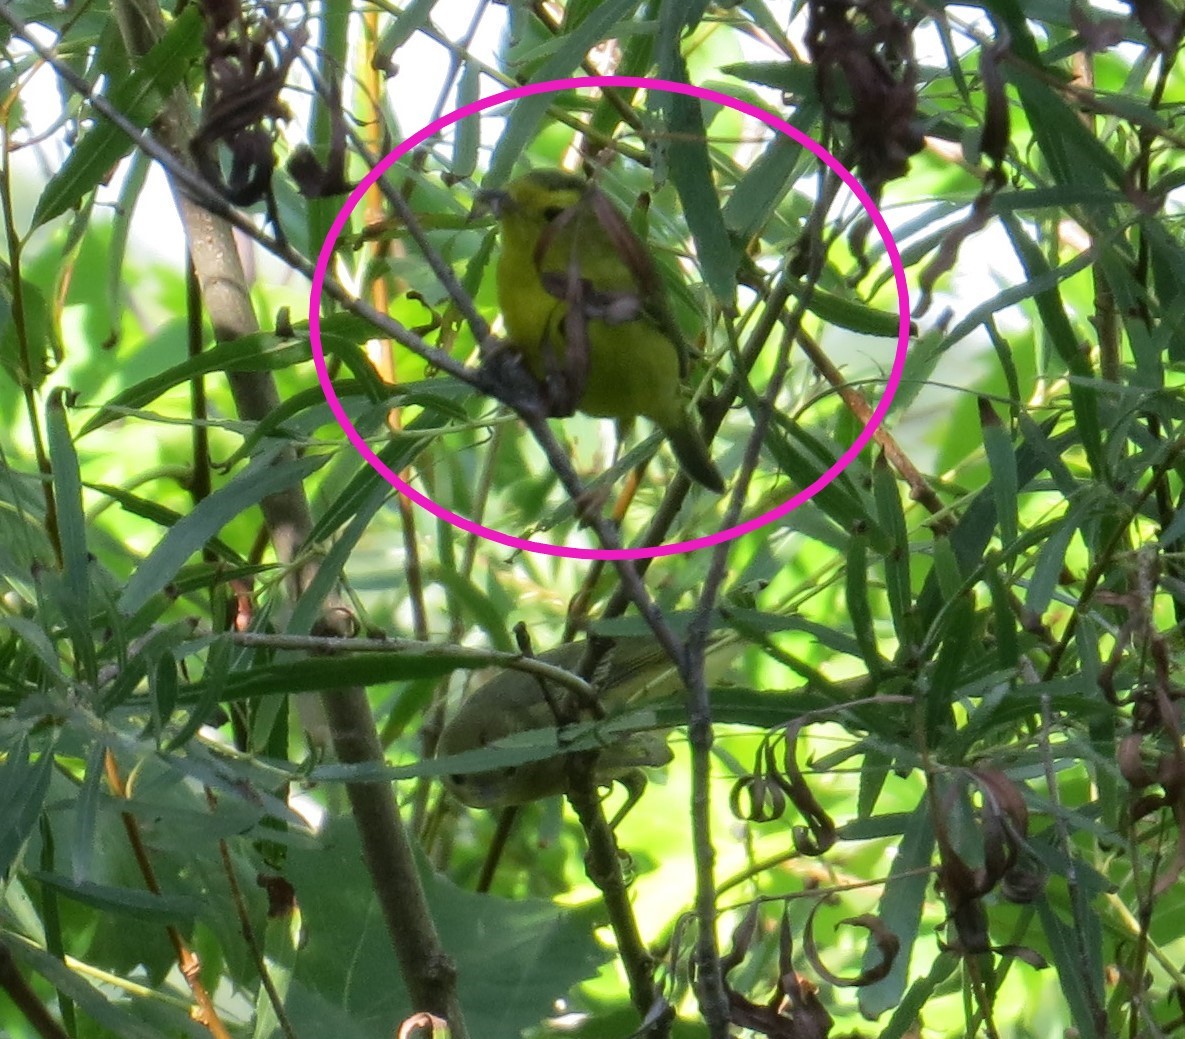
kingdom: Animalia
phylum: Chordata
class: Aves
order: Passeriformes
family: Parulidae
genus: Cardellina
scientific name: Cardellina pusilla
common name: Wilson's warbler
